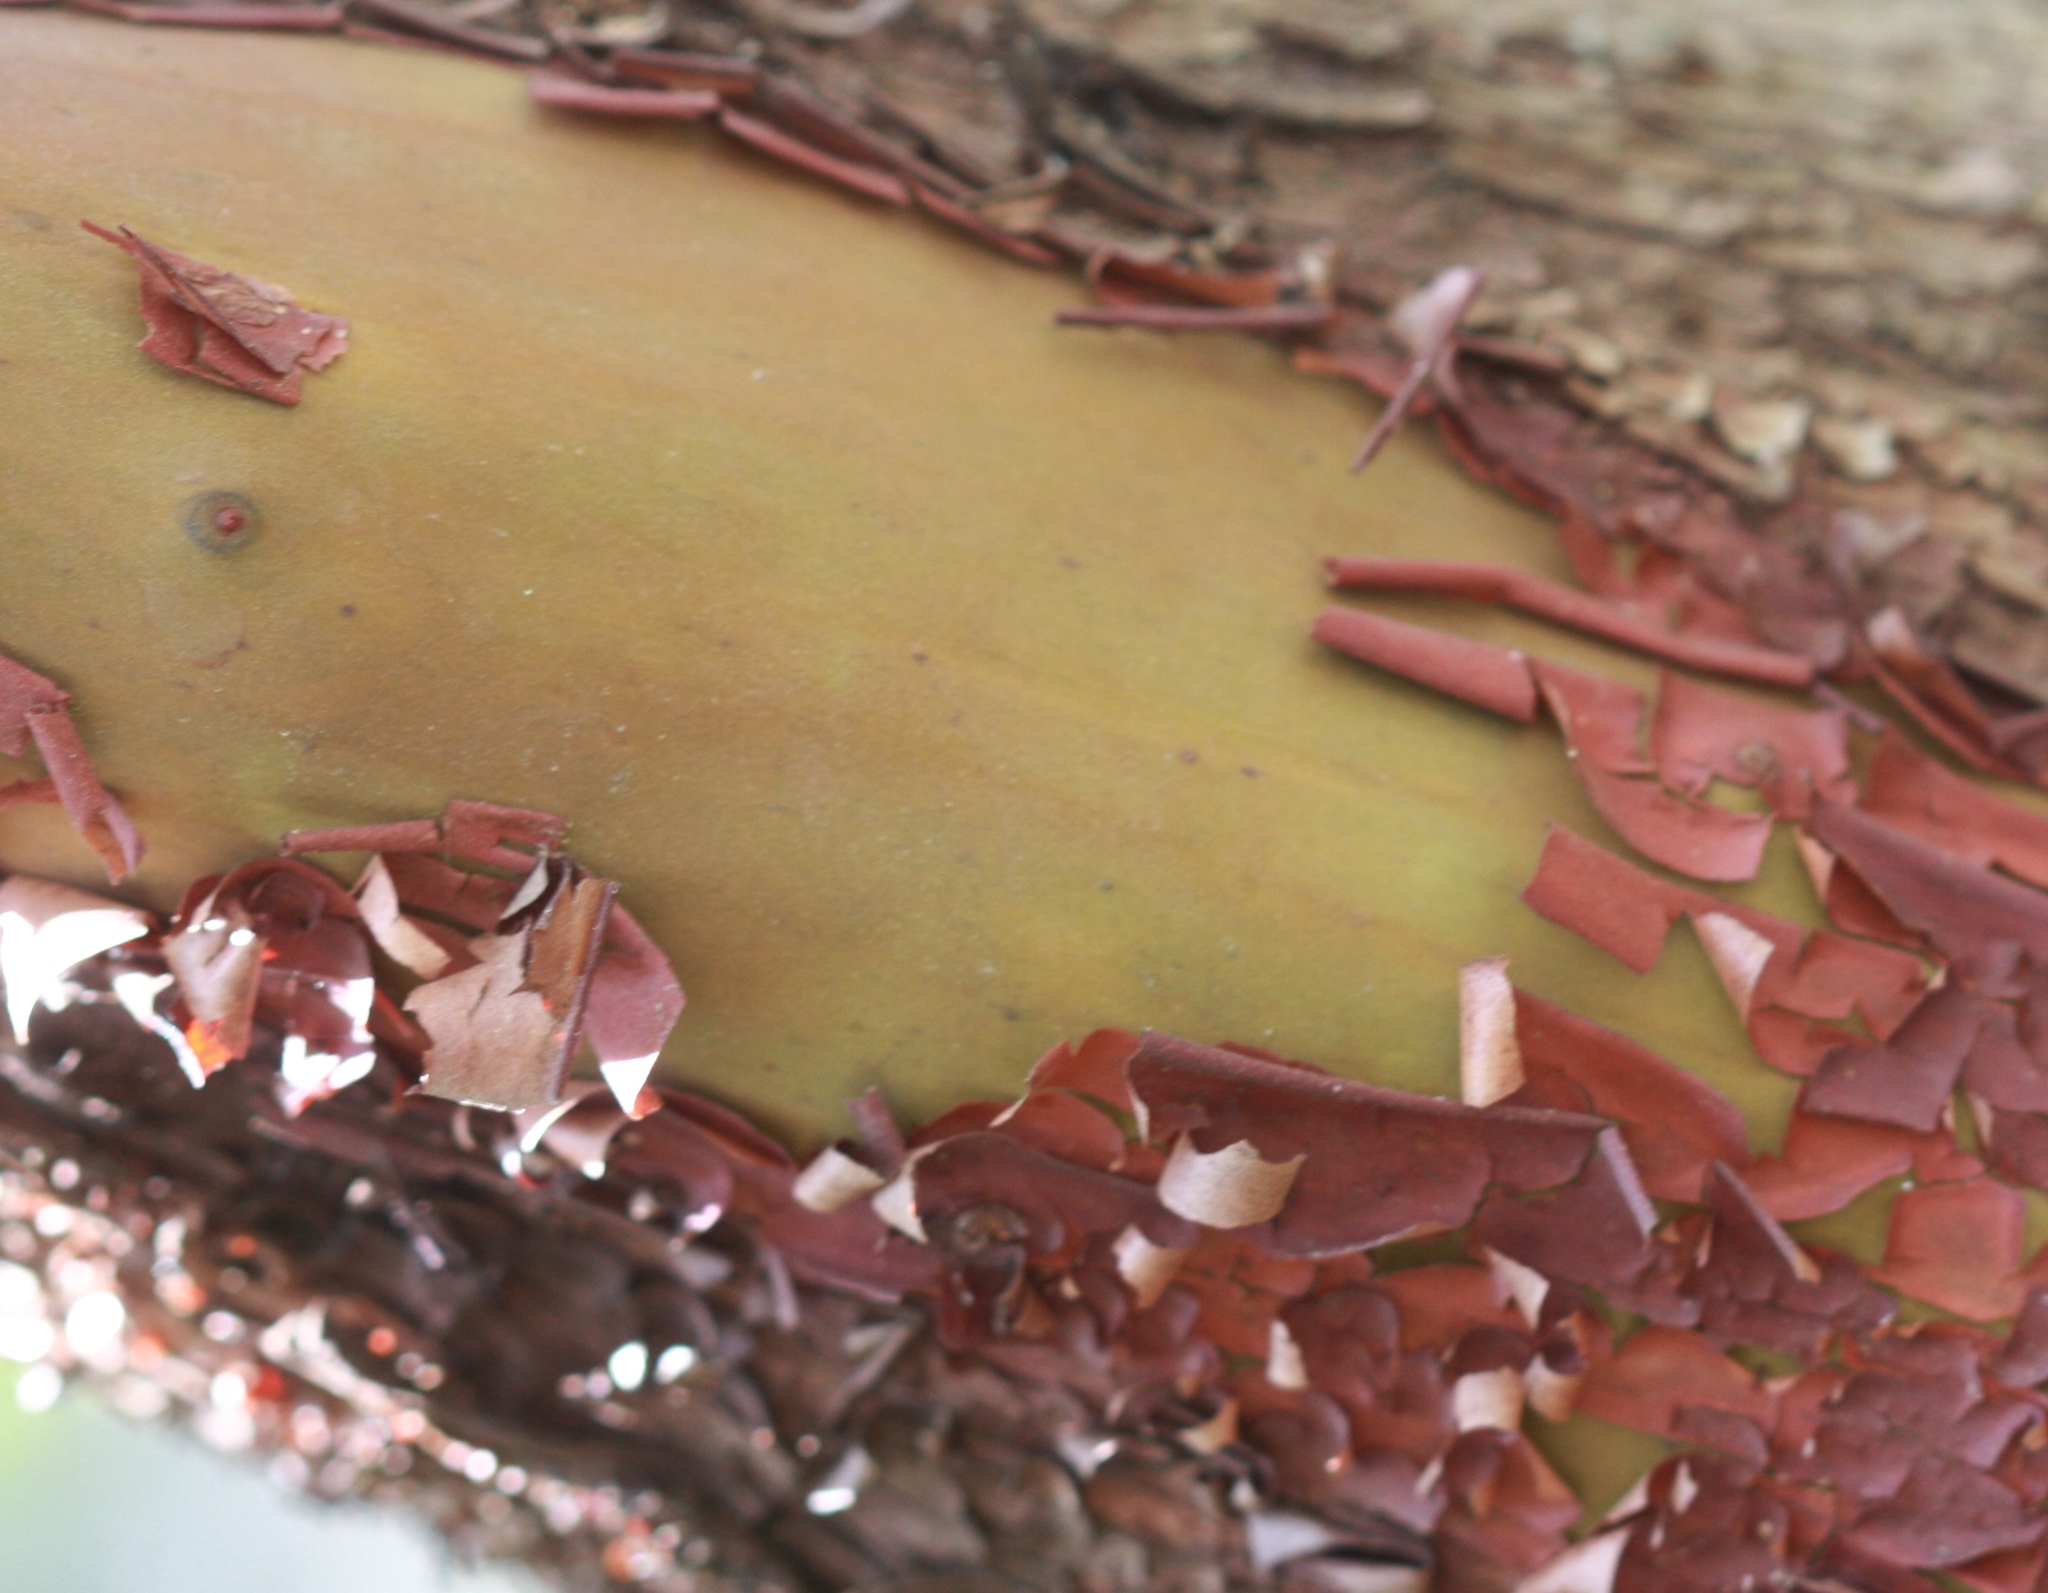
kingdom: Plantae
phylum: Tracheophyta
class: Magnoliopsida
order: Ericales
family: Ericaceae
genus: Arbutus
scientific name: Arbutus menziesii
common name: Pacific madrone
